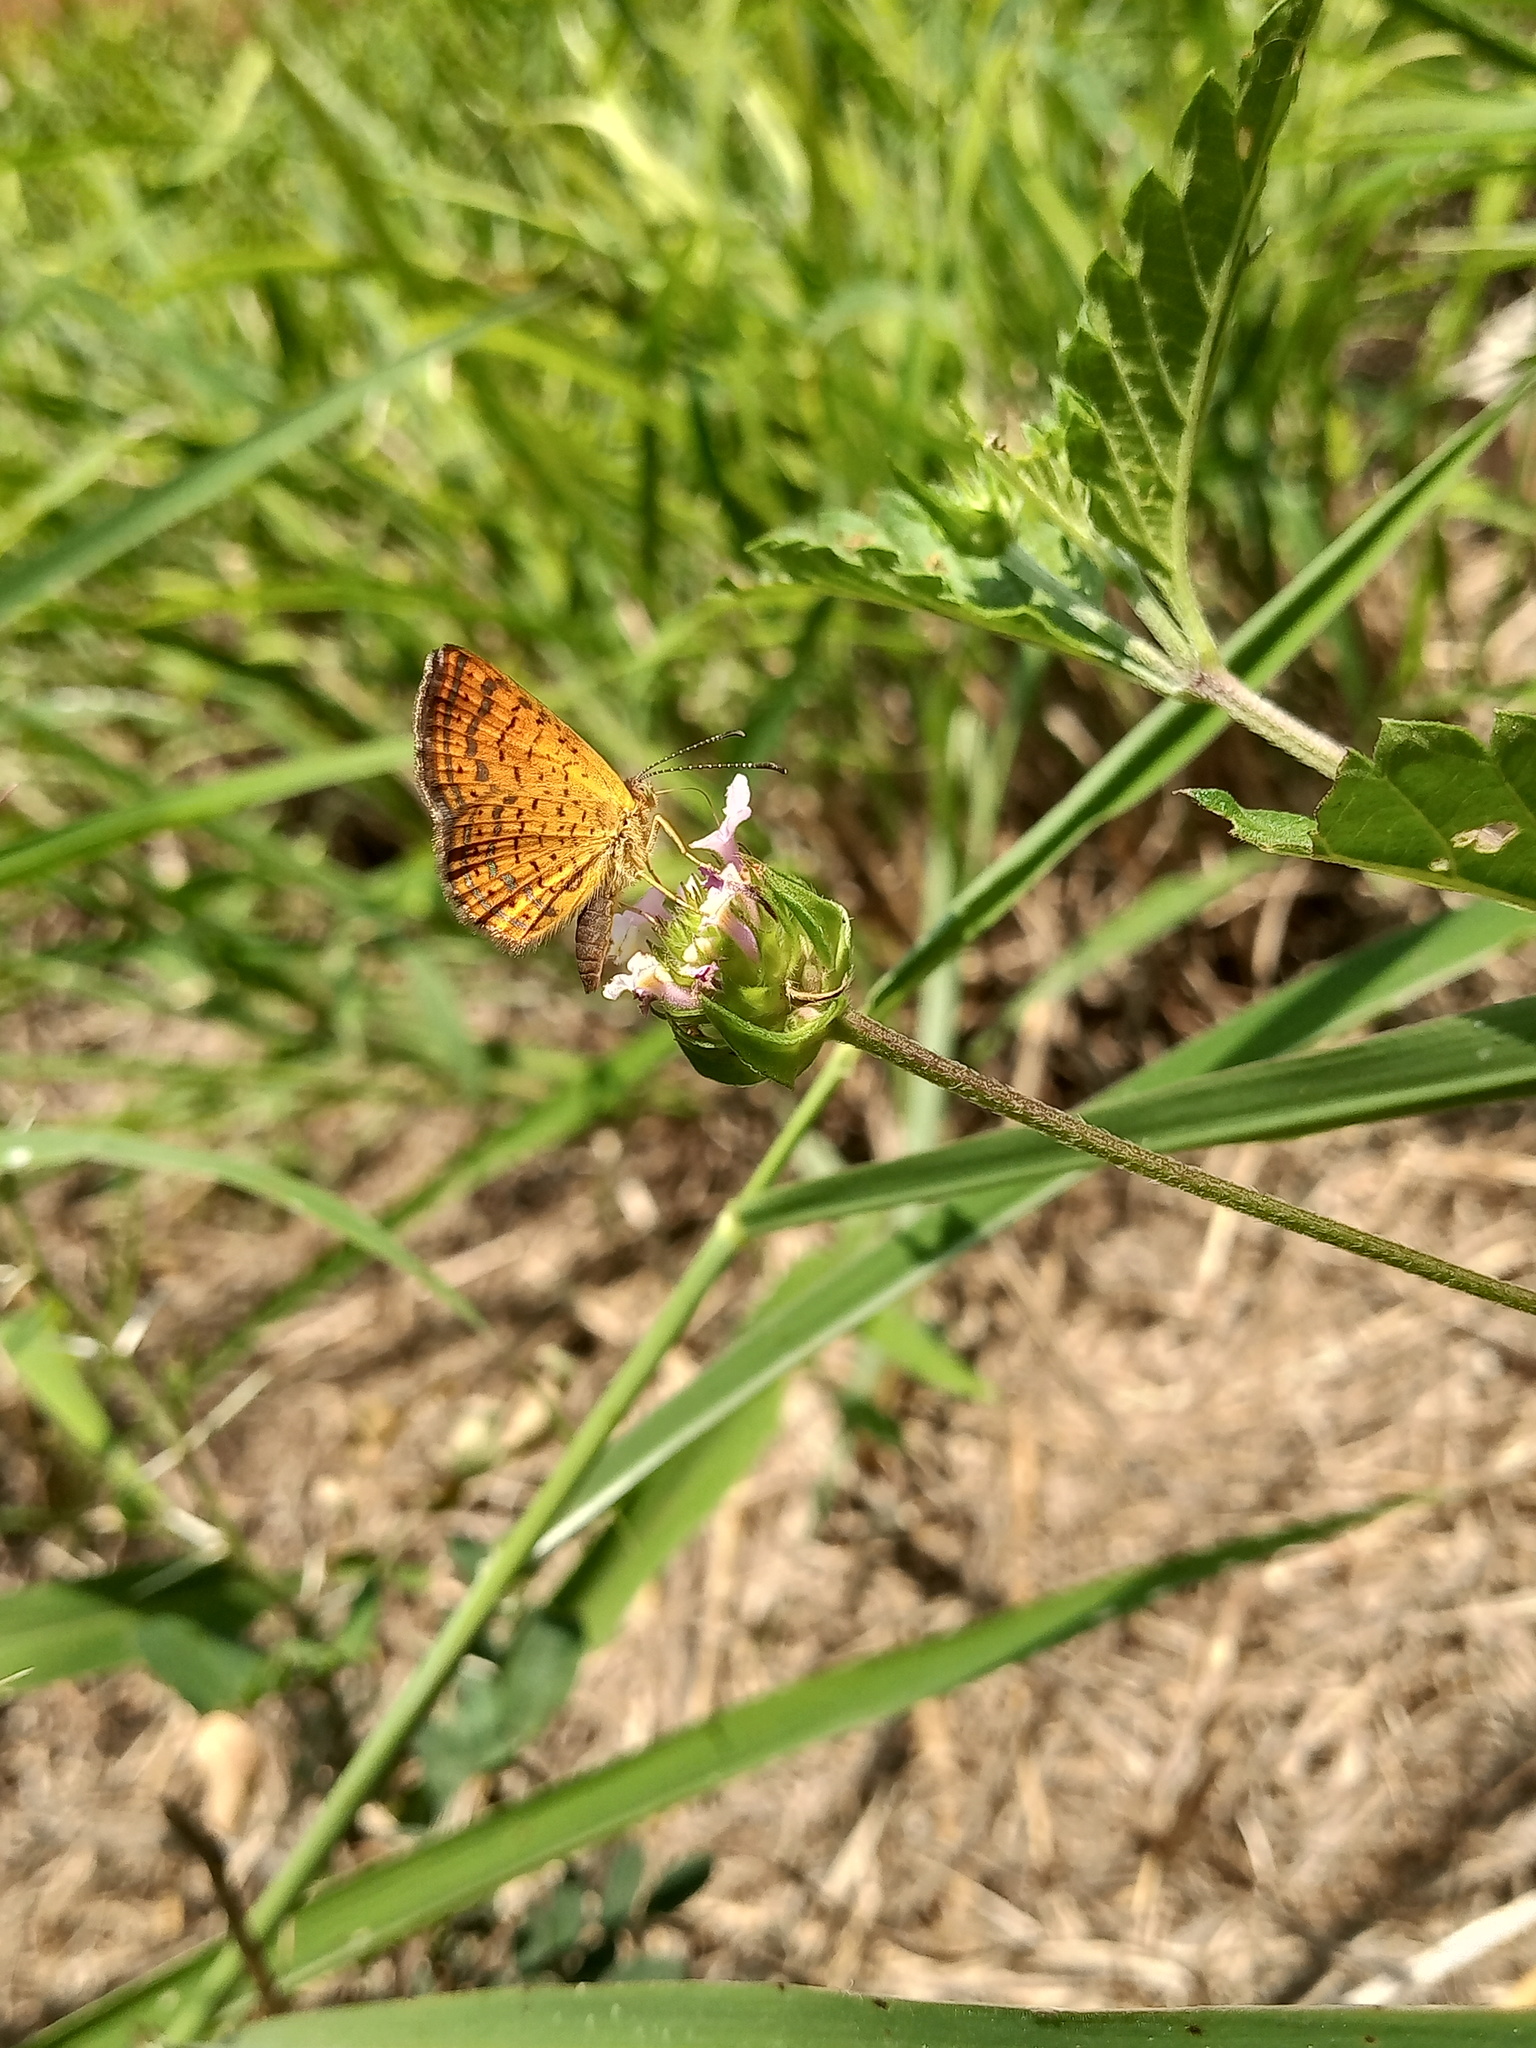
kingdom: Animalia
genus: Calephelis
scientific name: Calephelis
